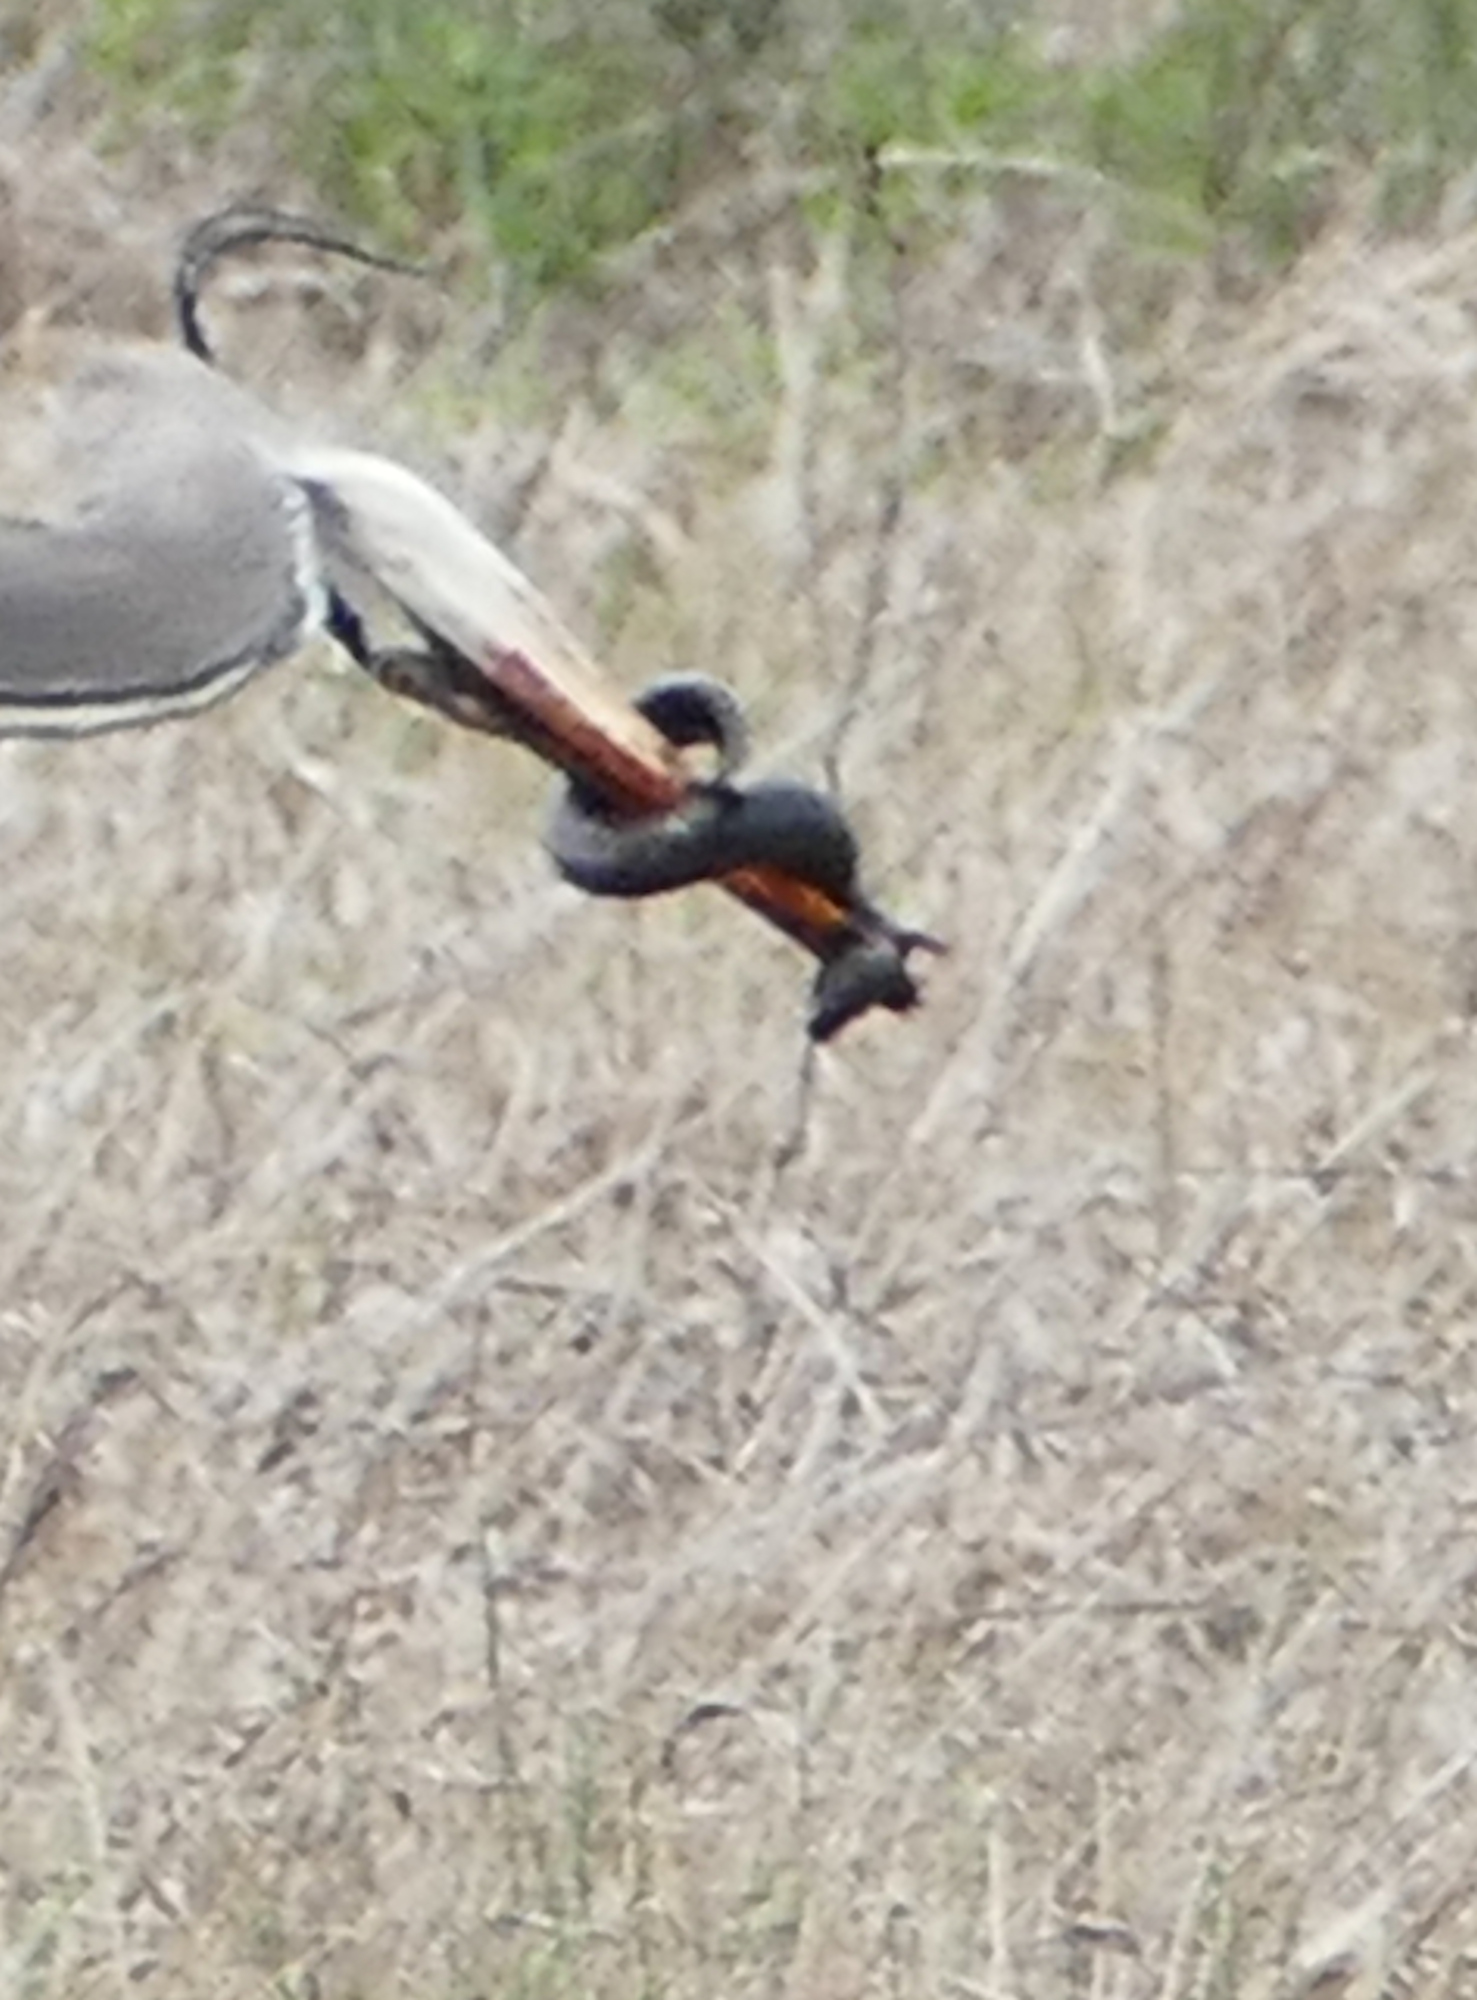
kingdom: Animalia
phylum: Chordata
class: Amphibia
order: Caudata
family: Sirenidae
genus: Siren
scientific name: Siren intermedia
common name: Lesser siren
